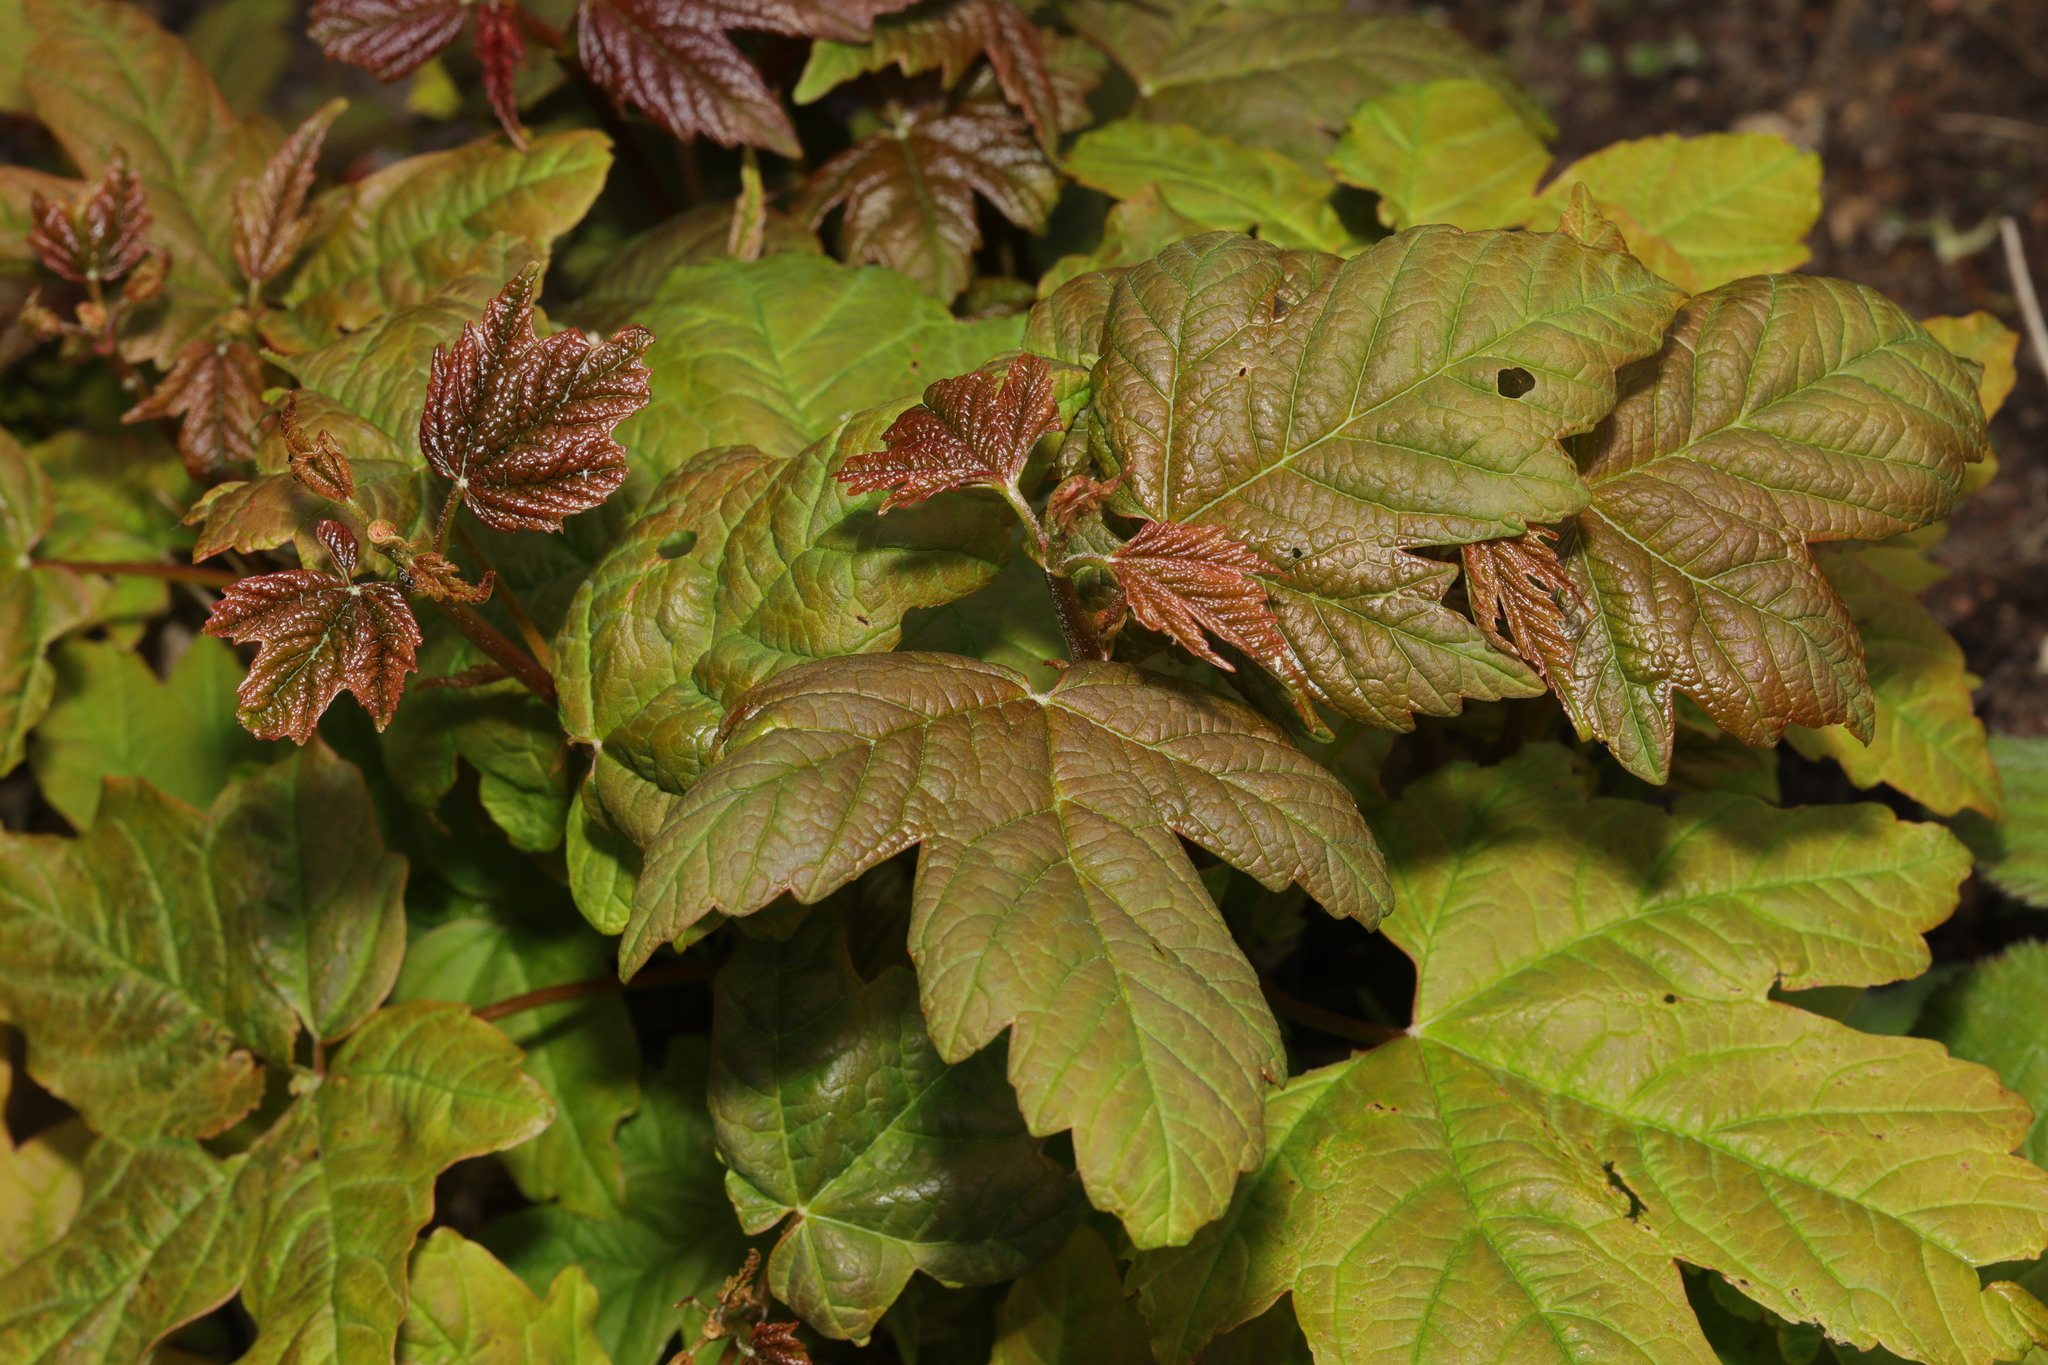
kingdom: Plantae
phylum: Tracheophyta
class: Magnoliopsida
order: Sapindales
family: Sapindaceae
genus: Acer
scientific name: Acer pseudoplatanus
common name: Sycamore
